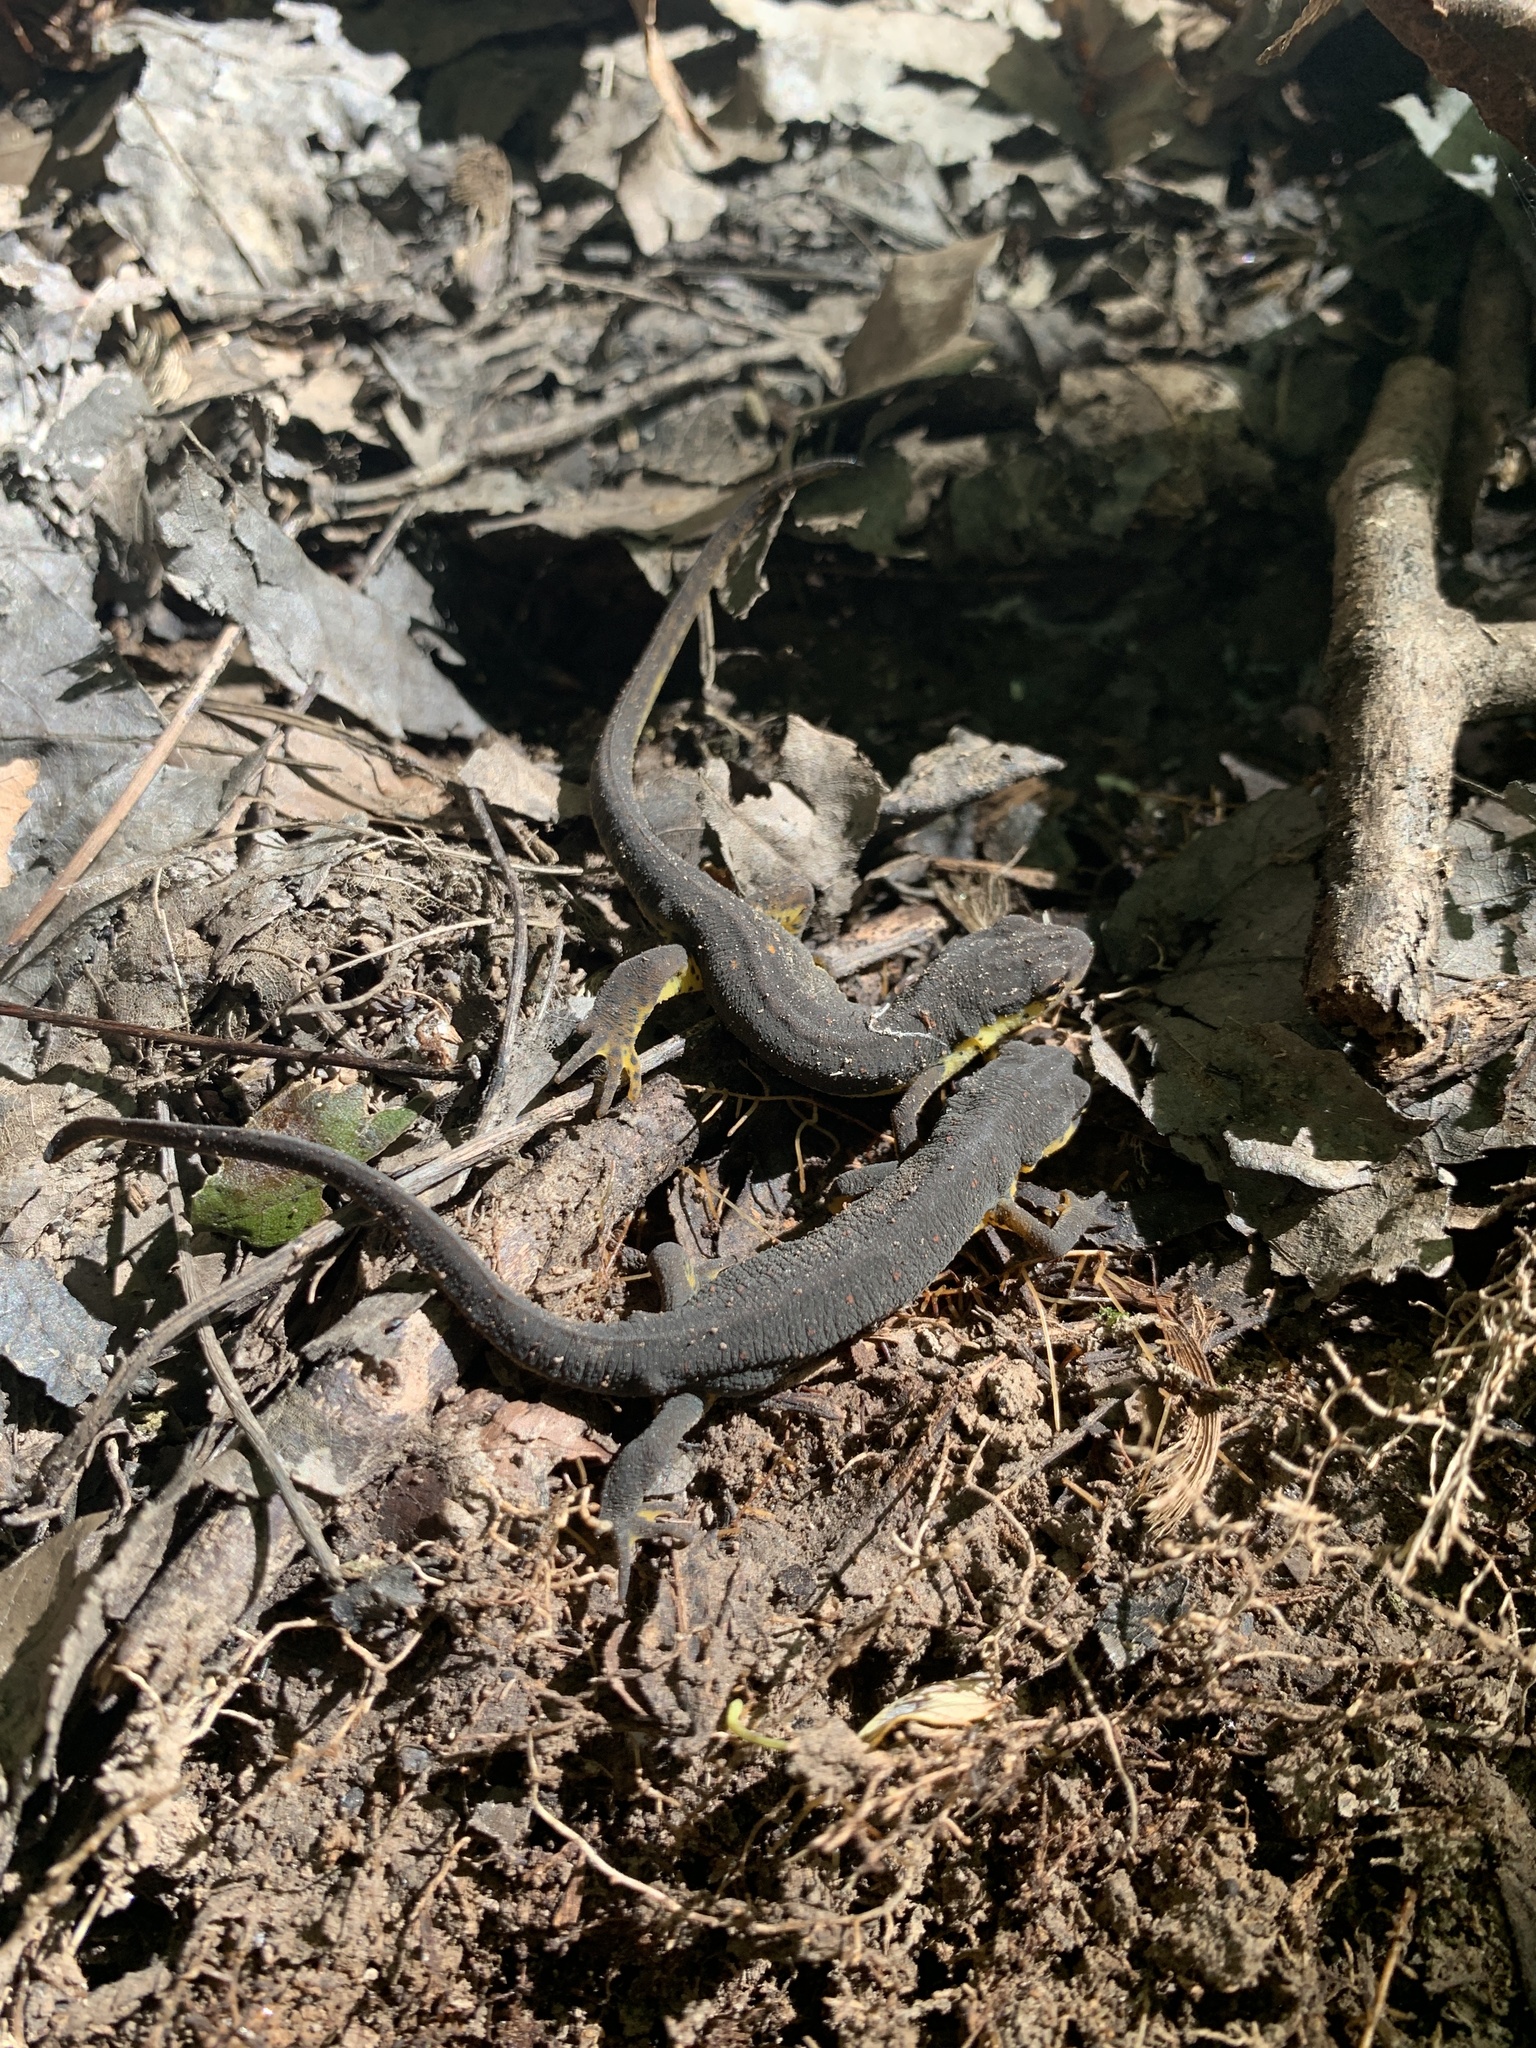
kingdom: Animalia
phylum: Chordata
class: Amphibia
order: Caudata
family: Salamandridae
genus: Notophthalmus
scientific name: Notophthalmus viridescens
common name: Eastern newt
